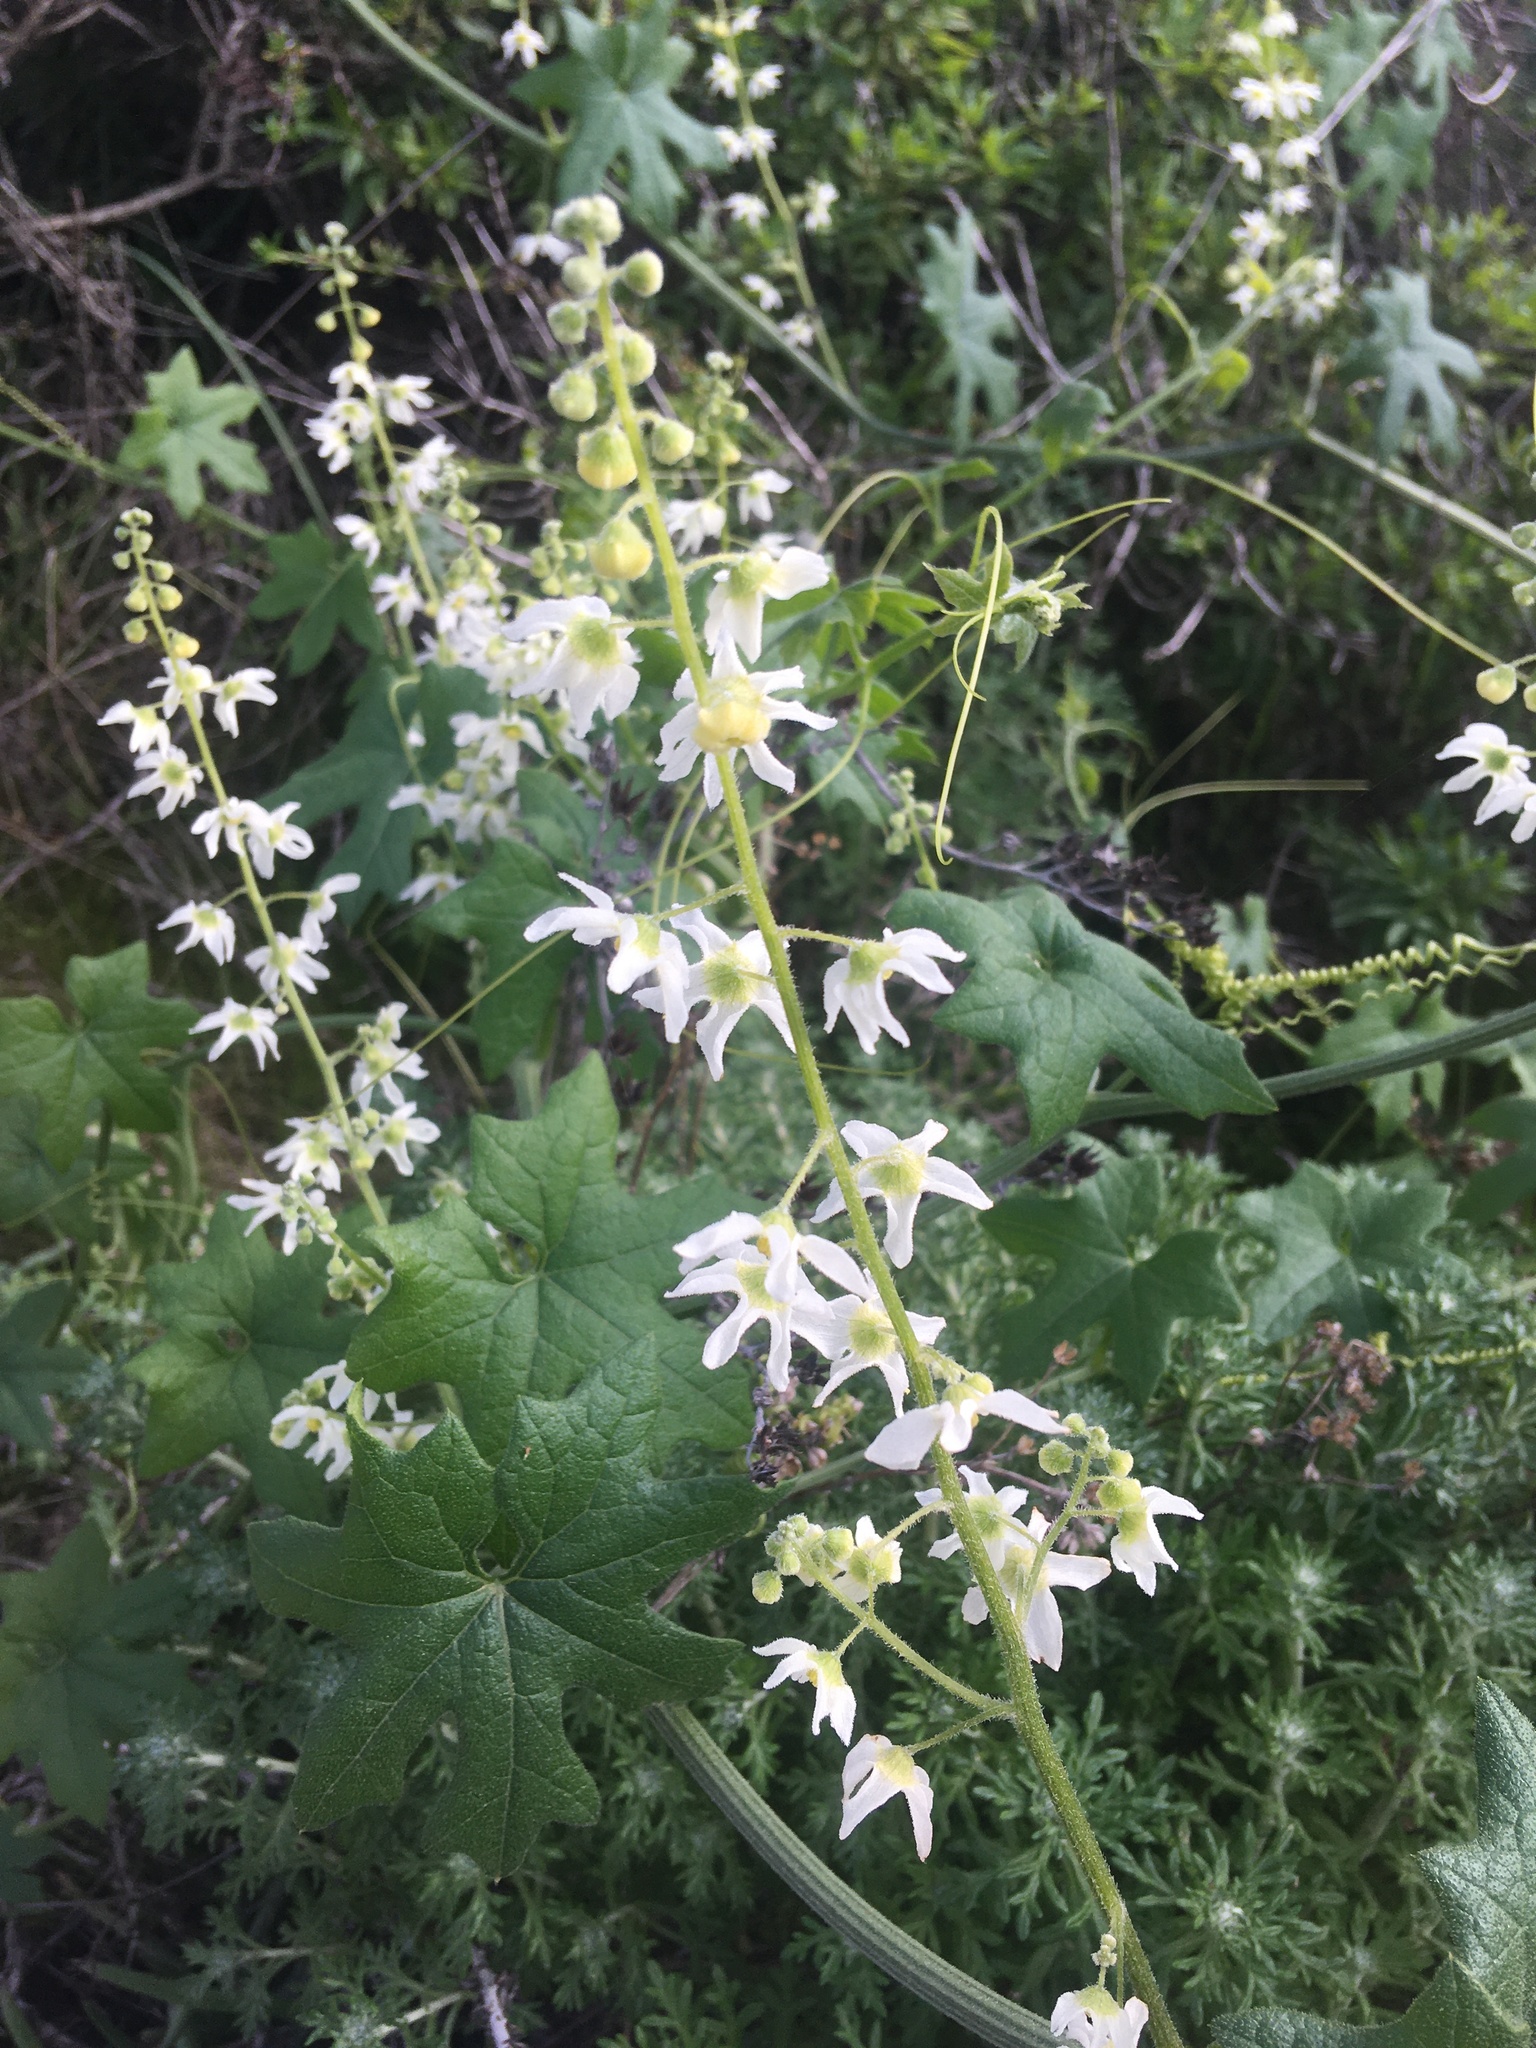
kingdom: Plantae
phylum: Tracheophyta
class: Magnoliopsida
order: Cucurbitales
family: Cucurbitaceae
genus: Marah
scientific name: Marah macrocarpa
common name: Cucamonga manroot
